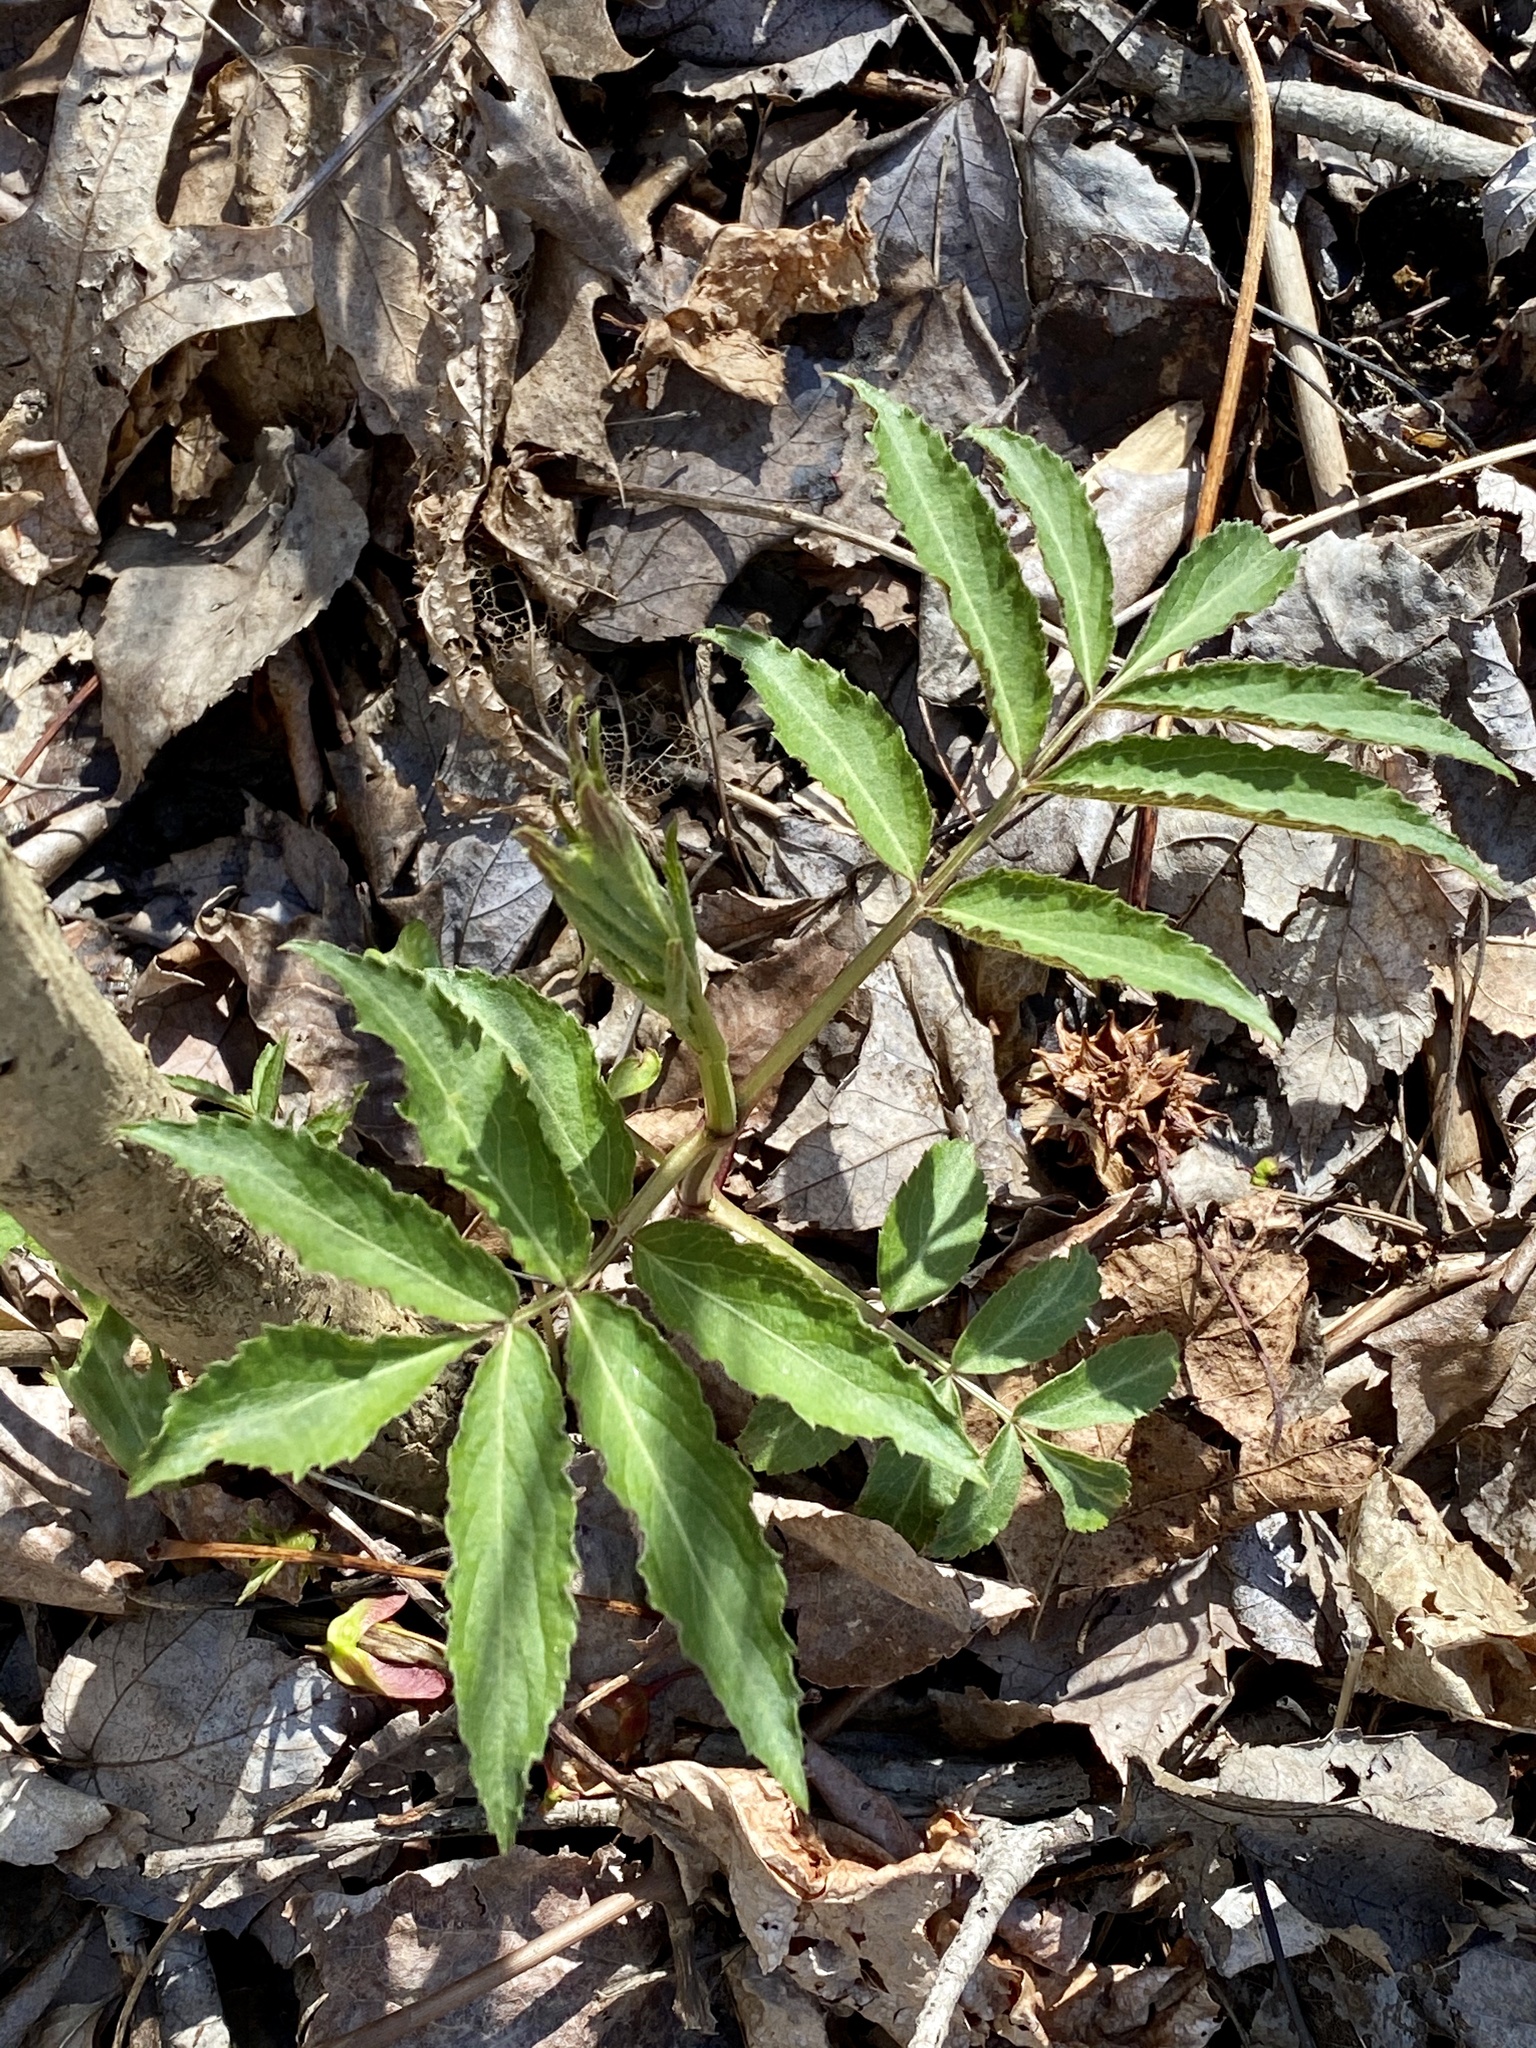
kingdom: Plantae
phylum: Tracheophyta
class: Magnoliopsida
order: Dipsacales
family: Viburnaceae
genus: Sambucus
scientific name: Sambucus
